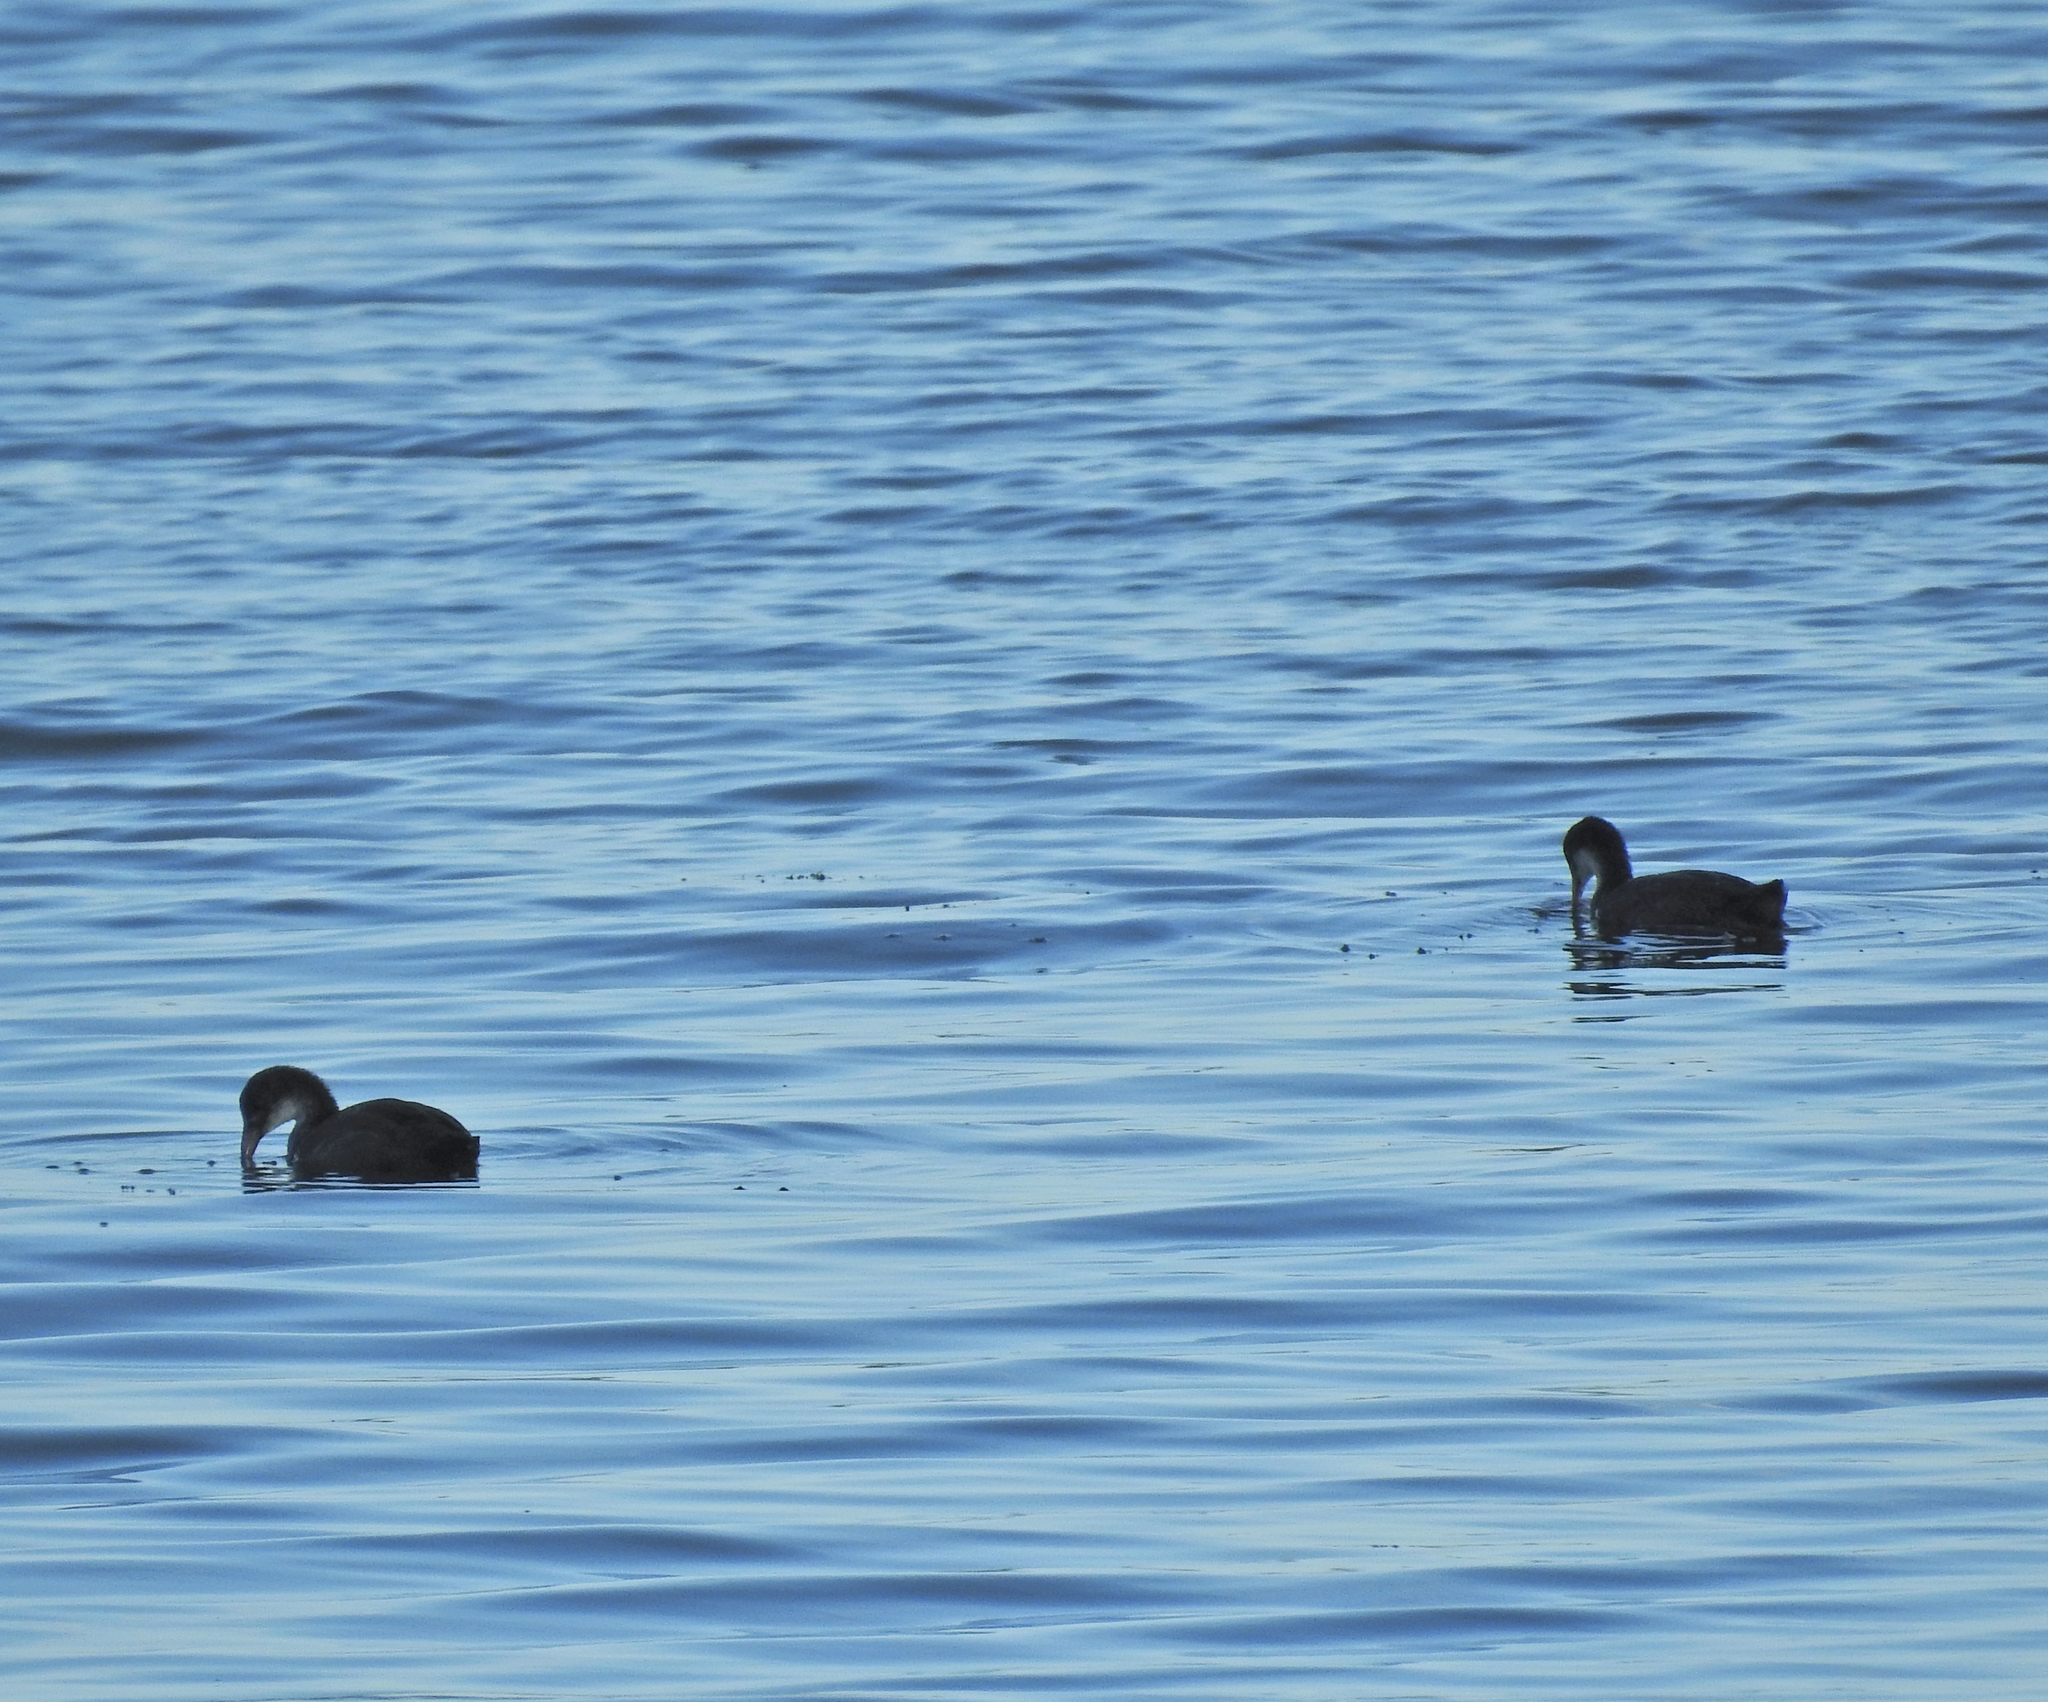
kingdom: Animalia
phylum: Chordata
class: Aves
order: Gruiformes
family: Rallidae
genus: Fulica
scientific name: Fulica atra
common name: Eurasian coot
